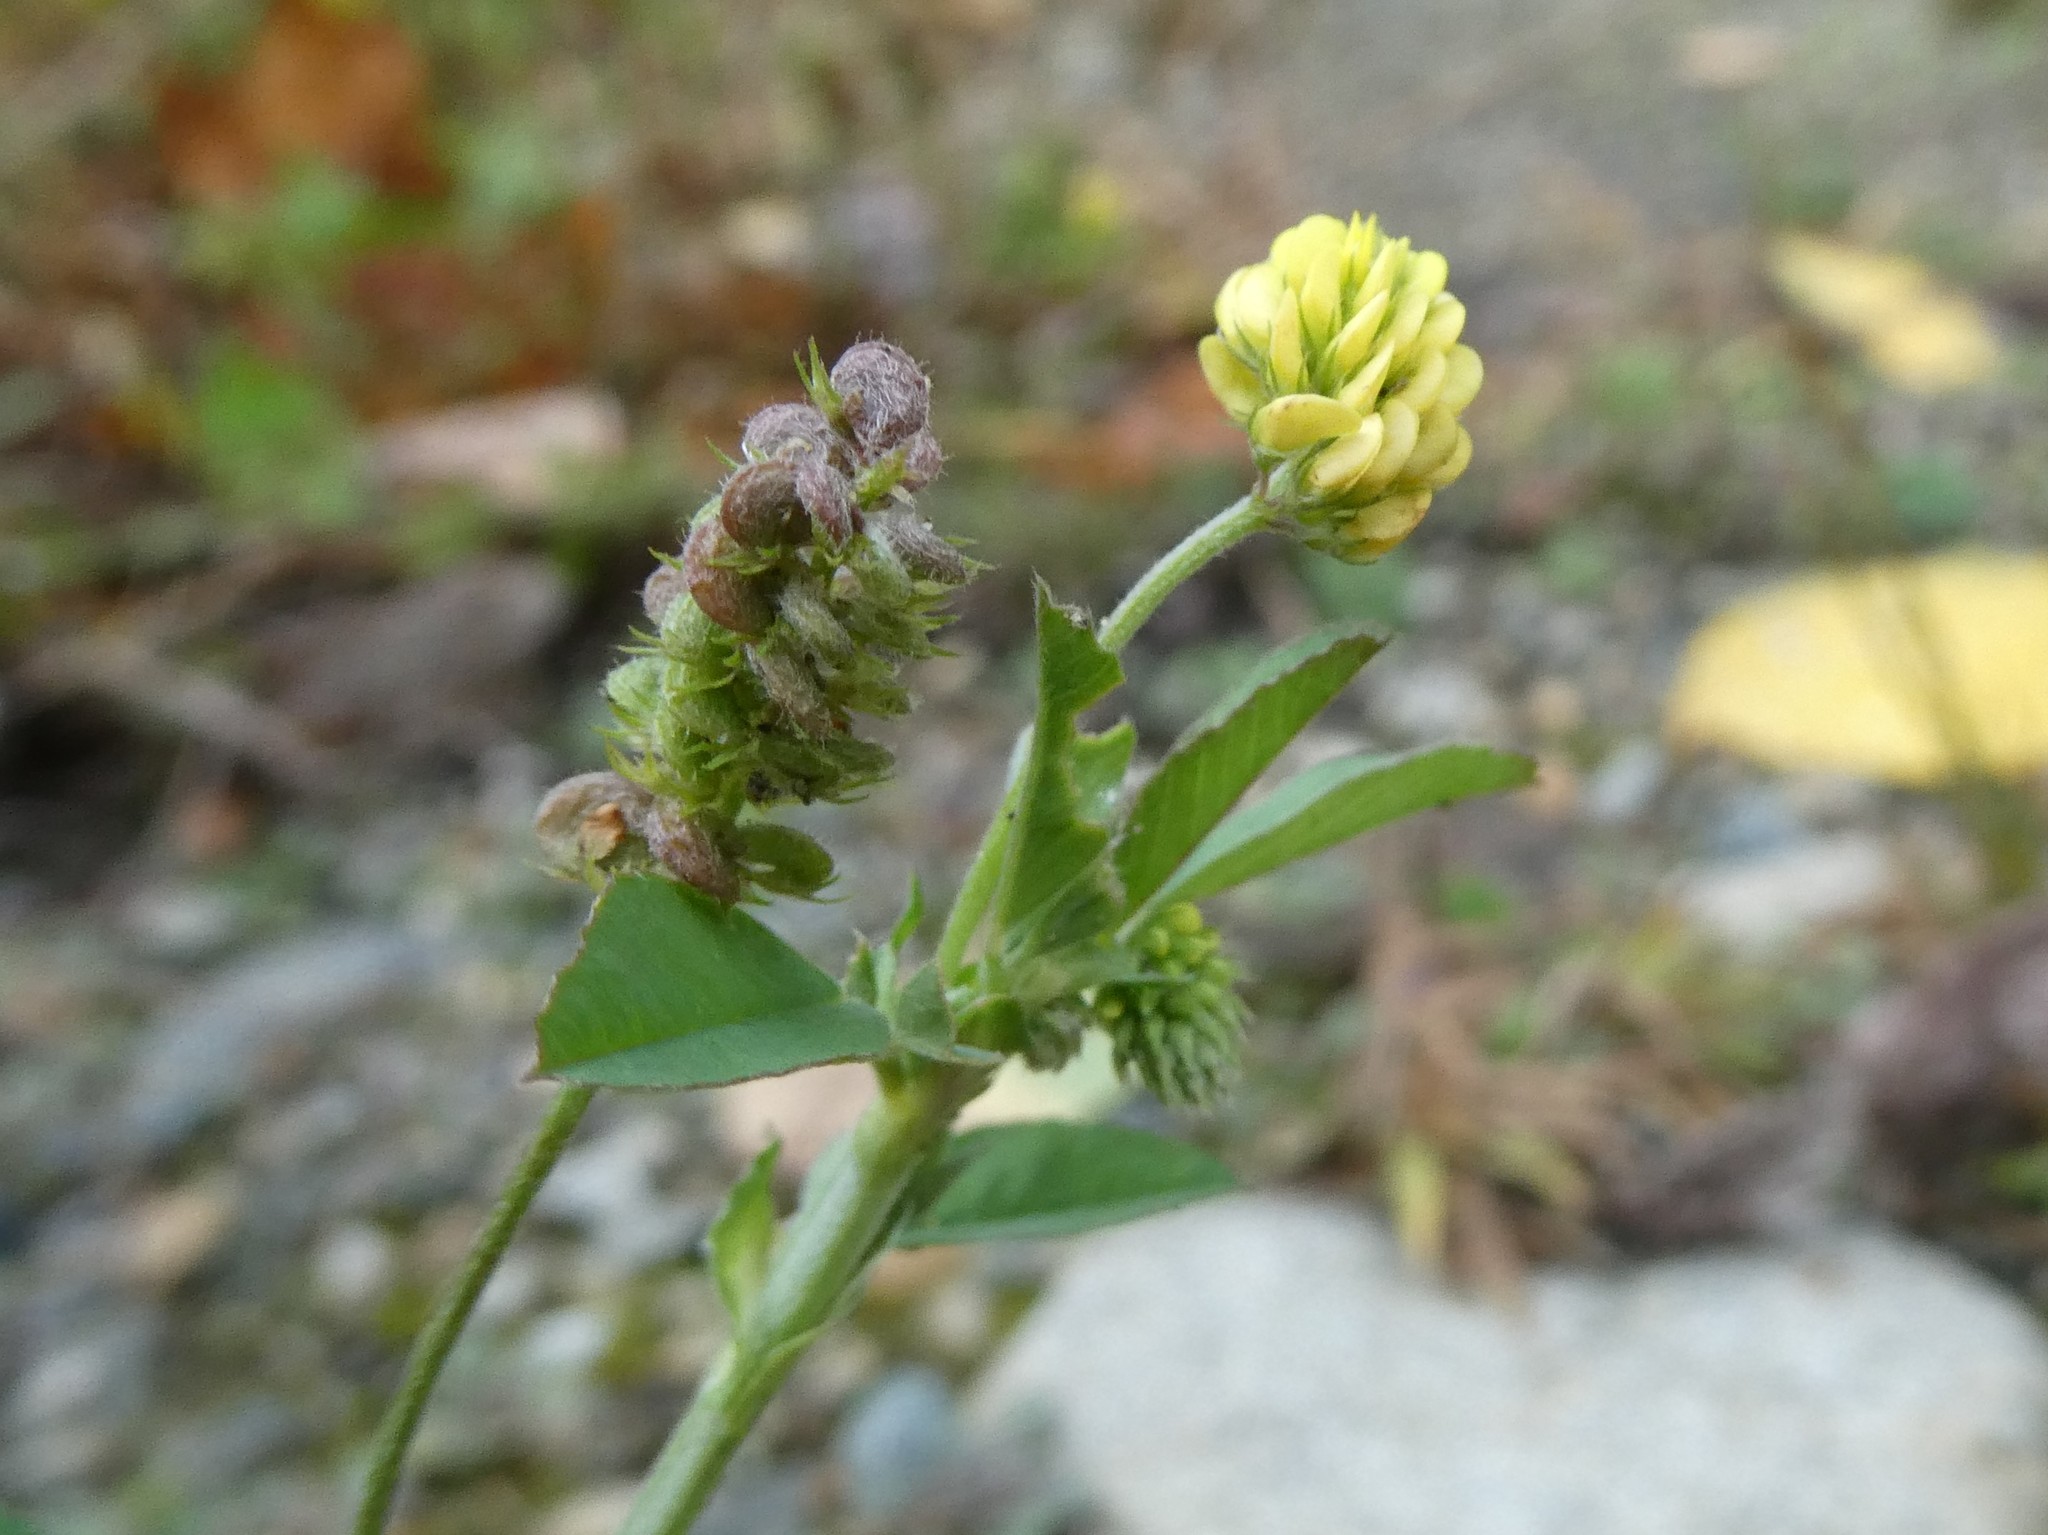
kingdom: Plantae
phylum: Tracheophyta
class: Magnoliopsida
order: Fabales
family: Fabaceae
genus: Medicago
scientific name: Medicago lupulina
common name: Black medick
